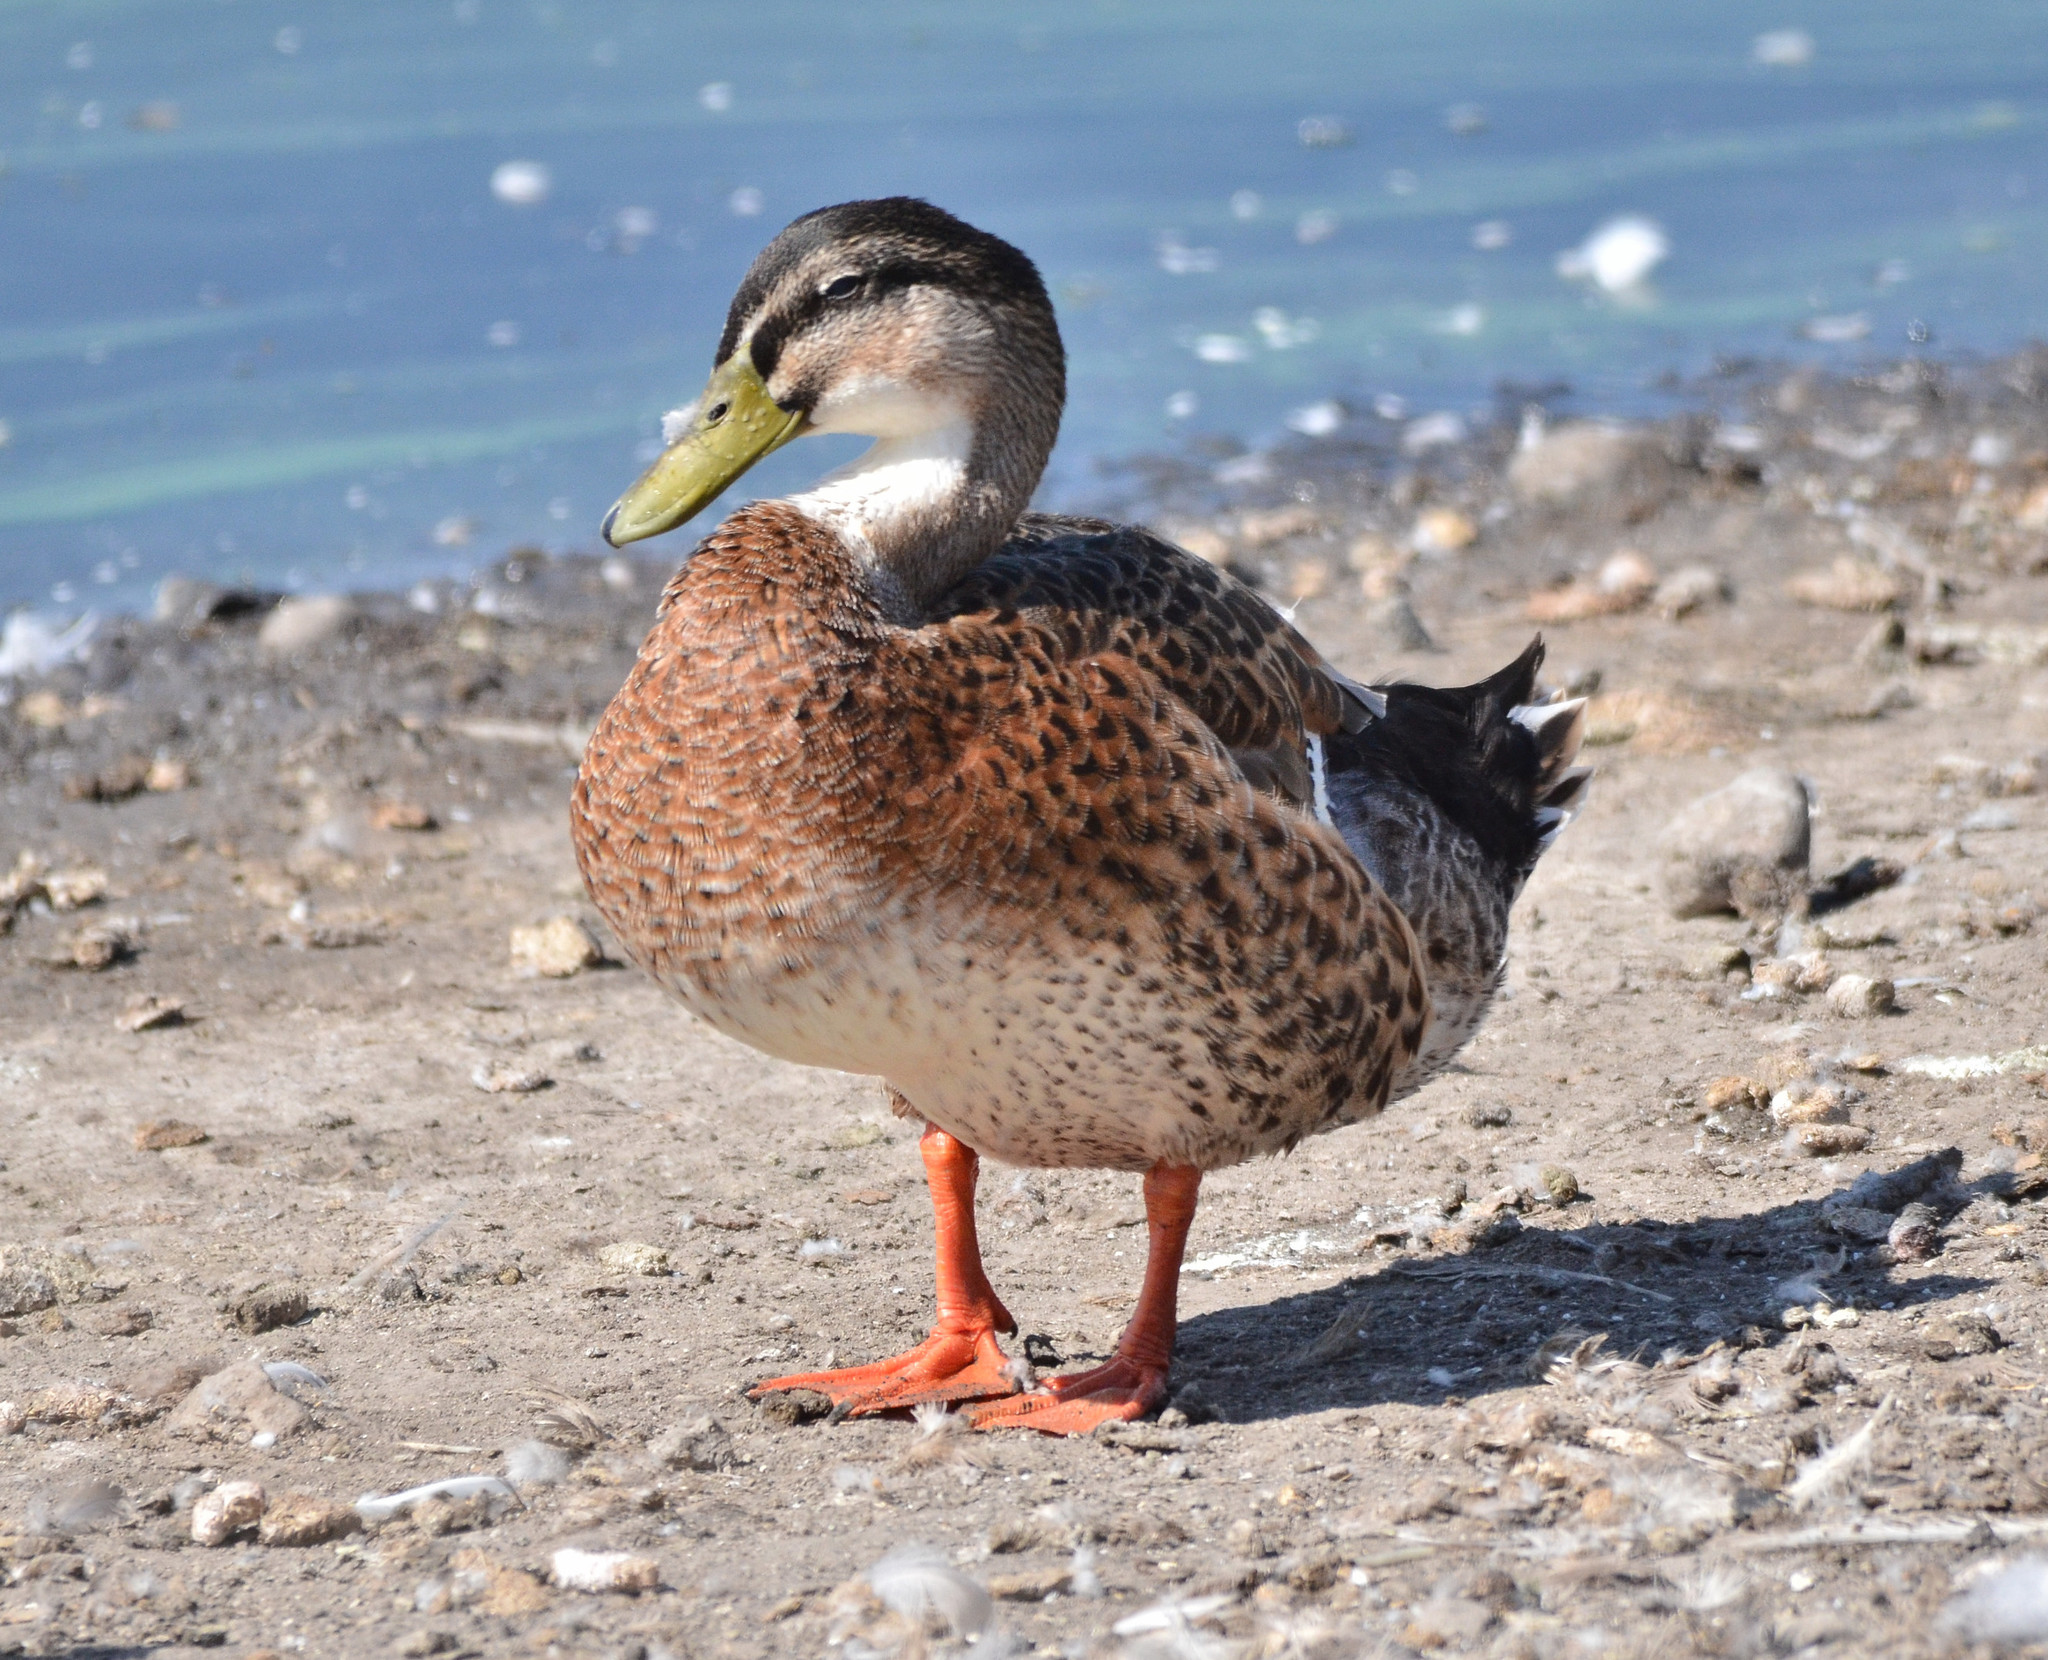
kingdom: Animalia
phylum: Chordata
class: Aves
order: Anseriformes
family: Anatidae
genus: Anas
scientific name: Anas platyrhynchos
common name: Mallard
